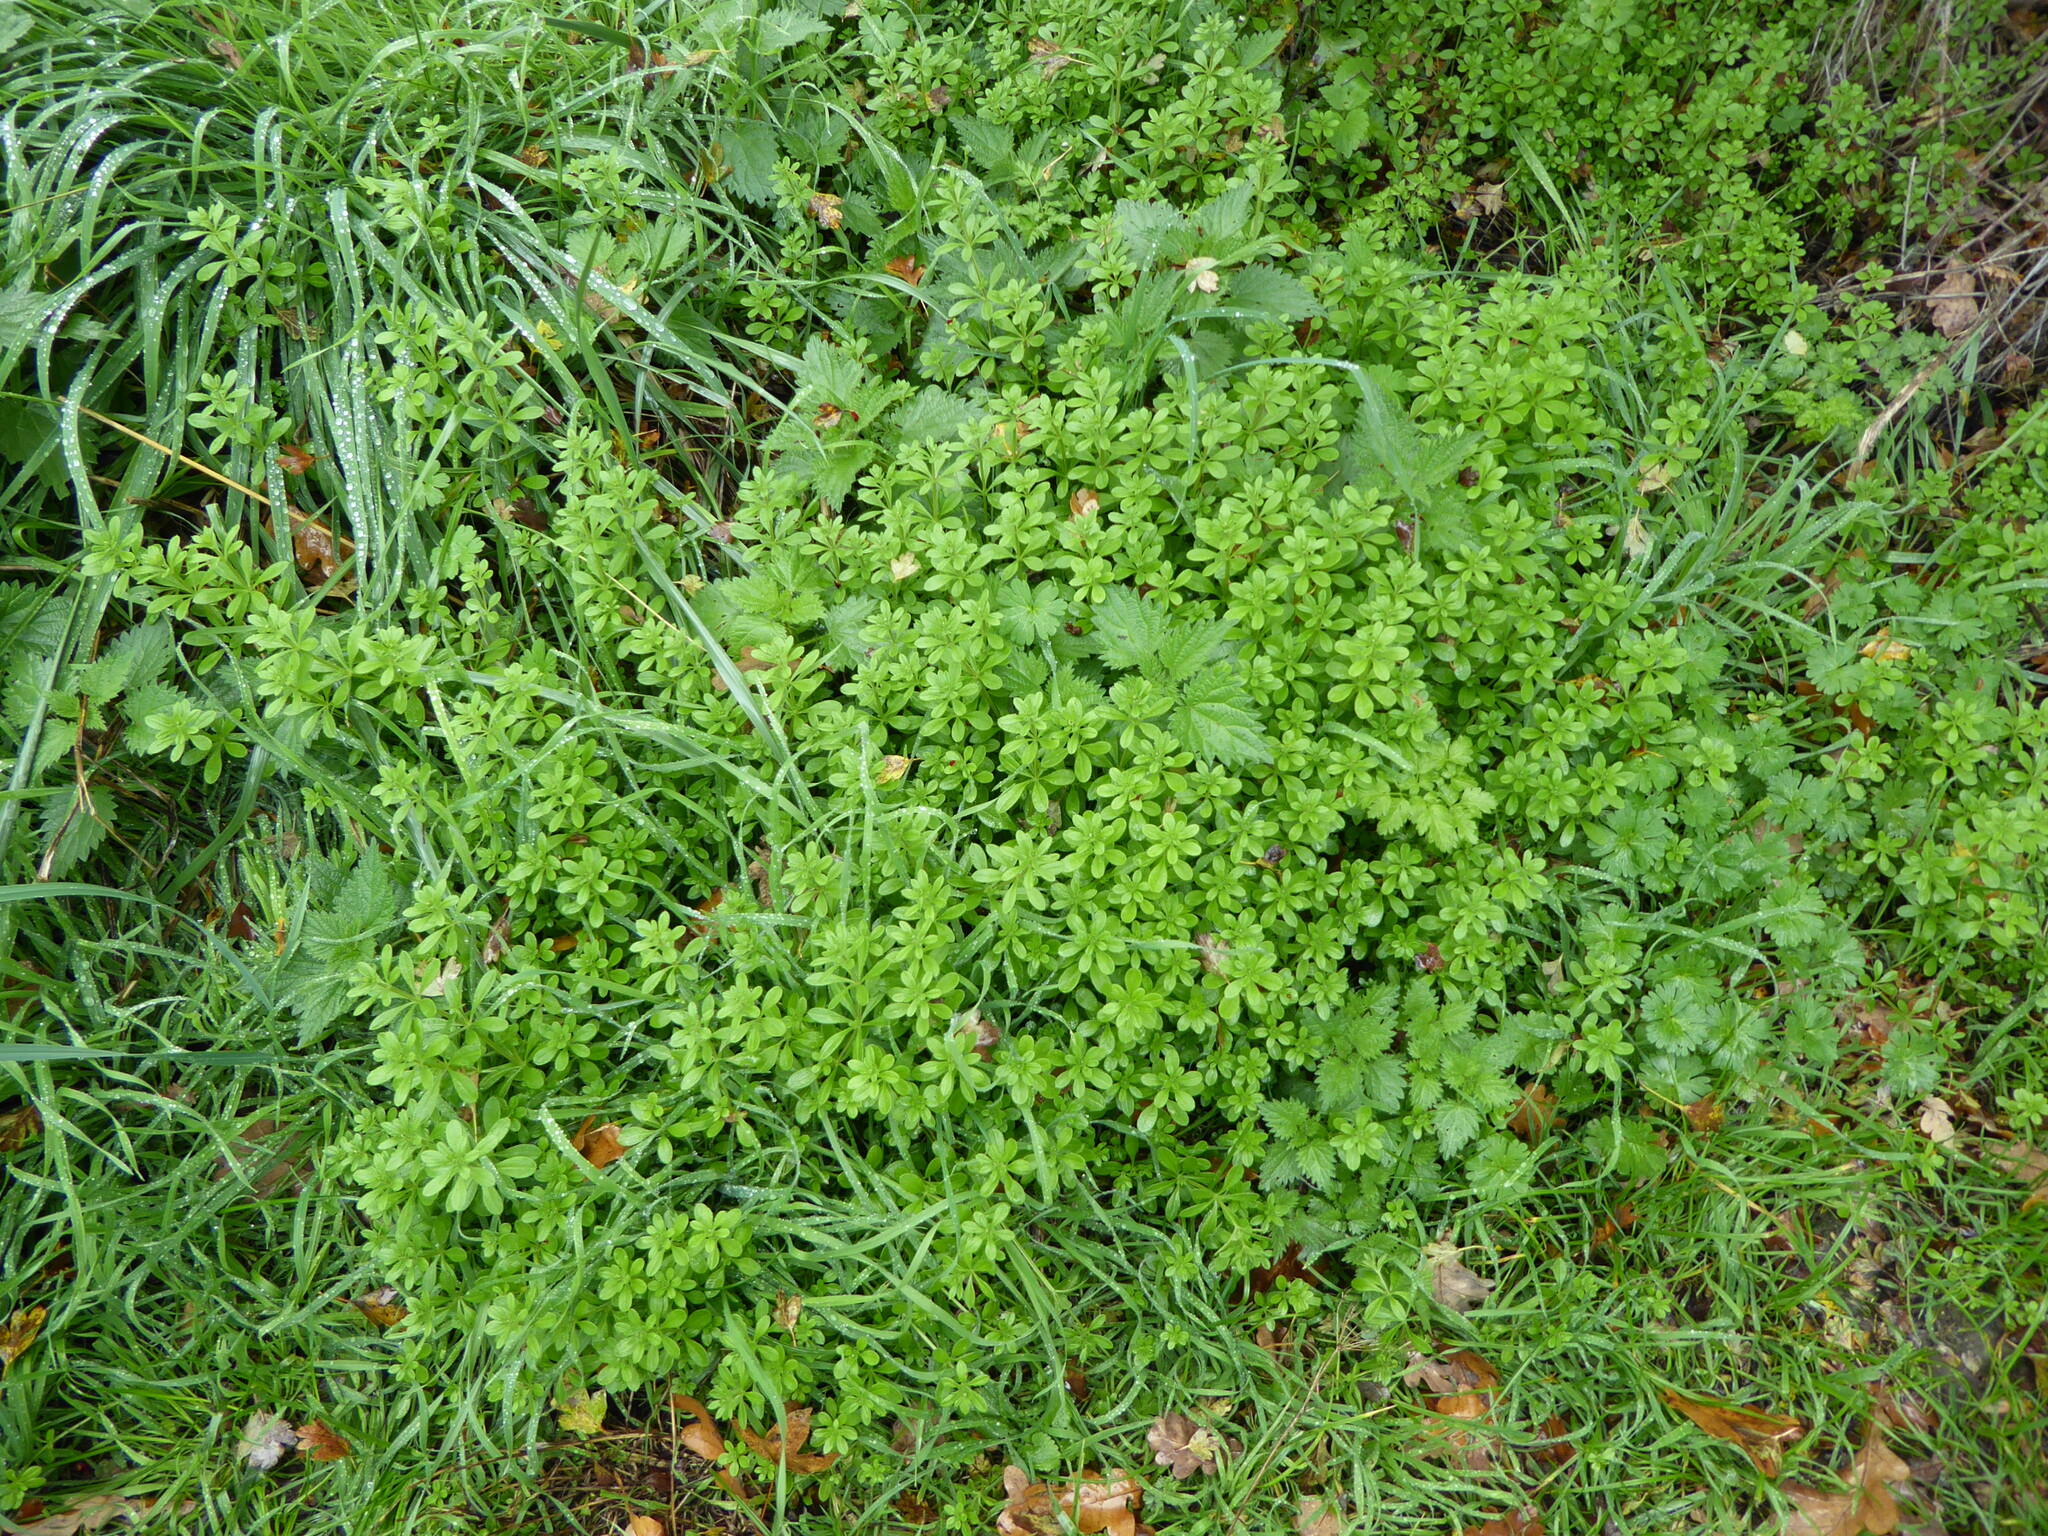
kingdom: Plantae
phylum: Tracheophyta
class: Magnoliopsida
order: Gentianales
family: Rubiaceae
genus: Galium
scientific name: Galium aparine
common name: Cleavers
